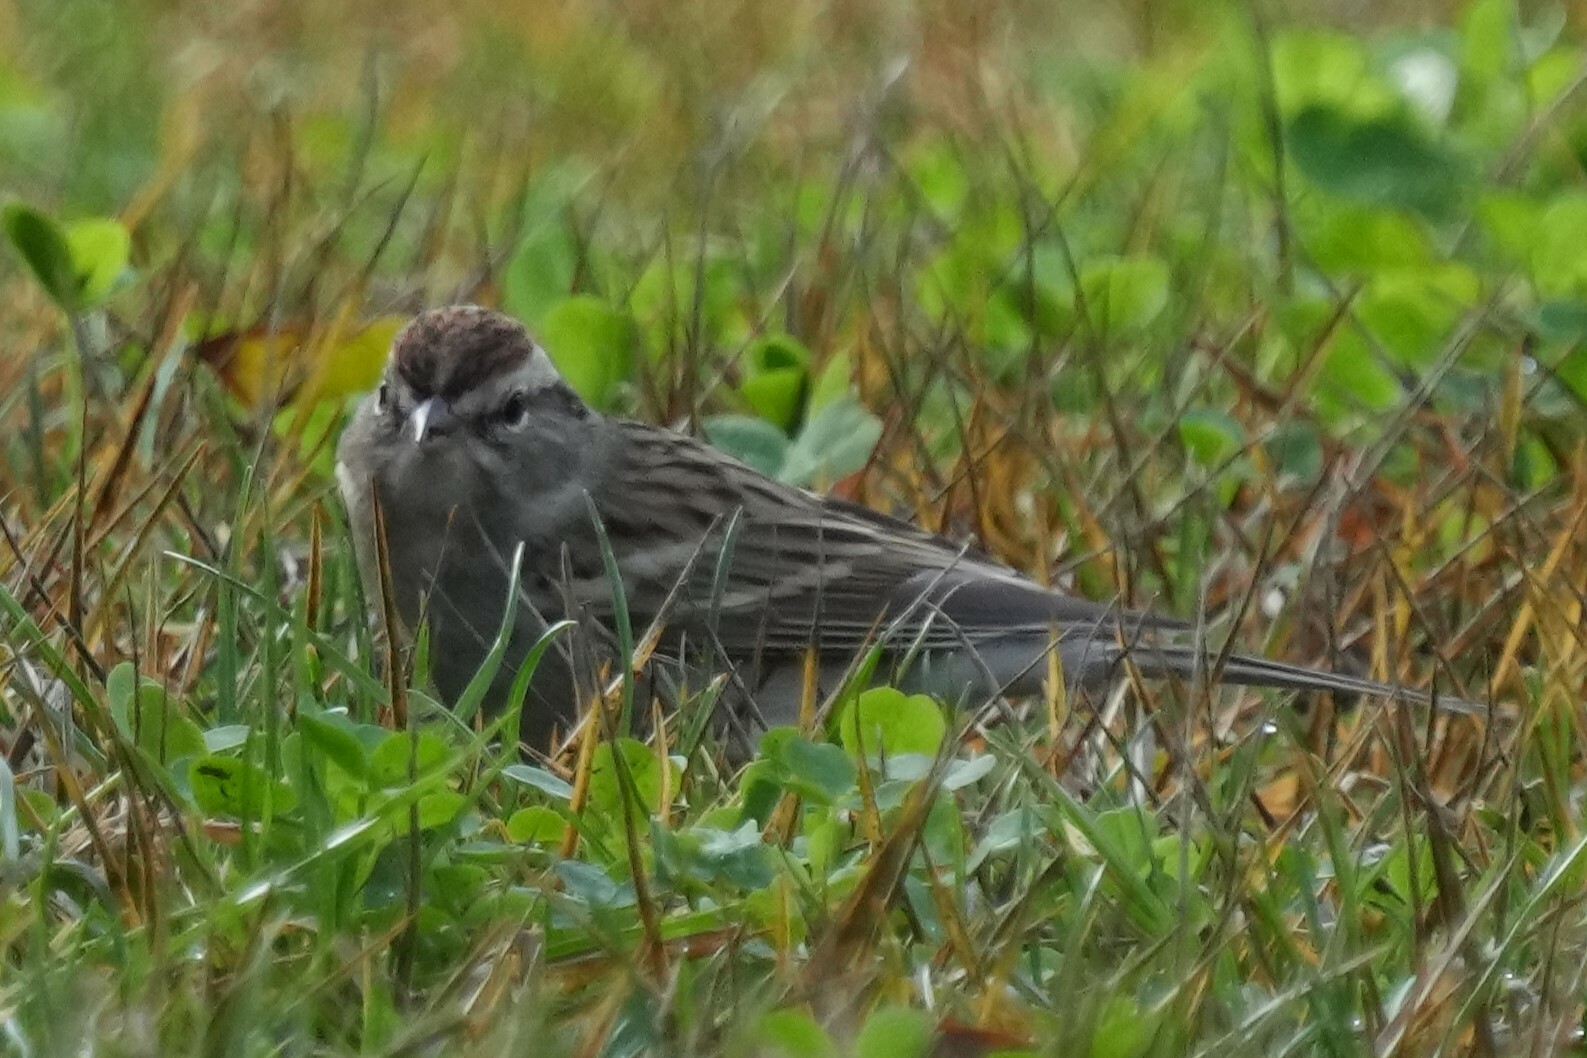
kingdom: Animalia
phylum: Chordata
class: Aves
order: Passeriformes
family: Passerellidae
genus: Spizella
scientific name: Spizella passerina
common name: Chipping sparrow
